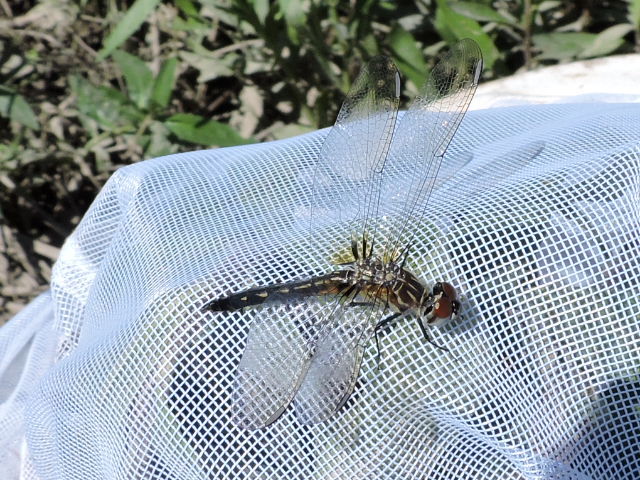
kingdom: Animalia
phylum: Arthropoda
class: Insecta
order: Odonata
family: Libellulidae
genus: Pachydiplax
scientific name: Pachydiplax longipennis
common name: Blue dasher
